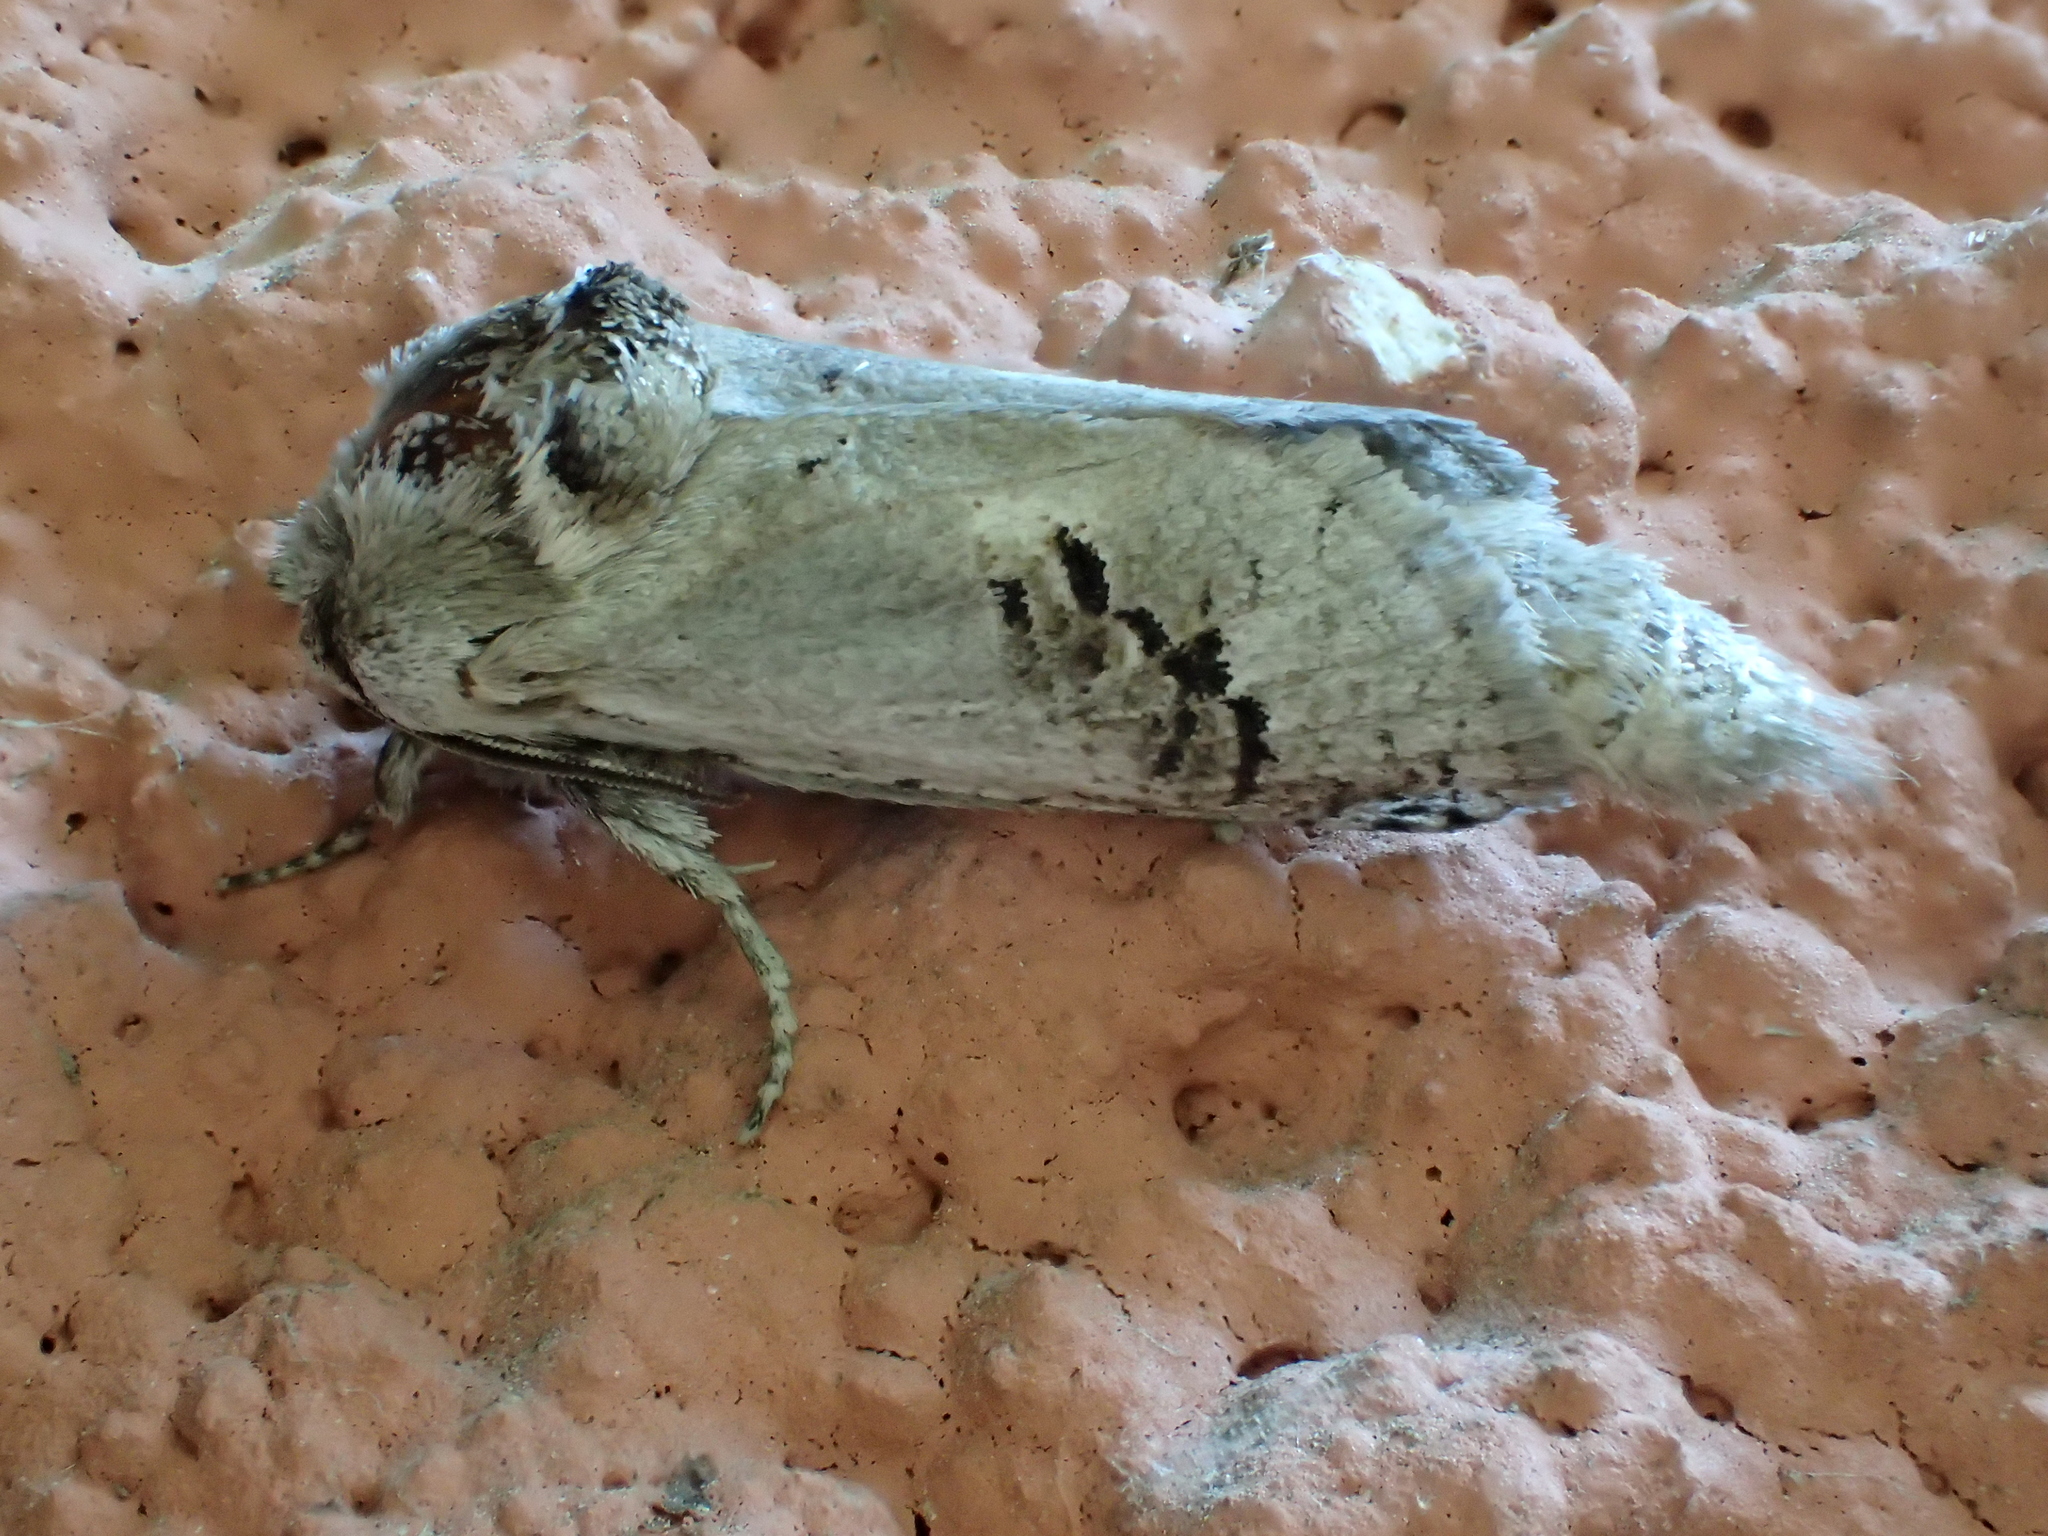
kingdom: Animalia
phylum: Arthropoda
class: Insecta
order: Lepidoptera
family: Cossidae
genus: Parahypopta
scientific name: Parahypopta caestrum
